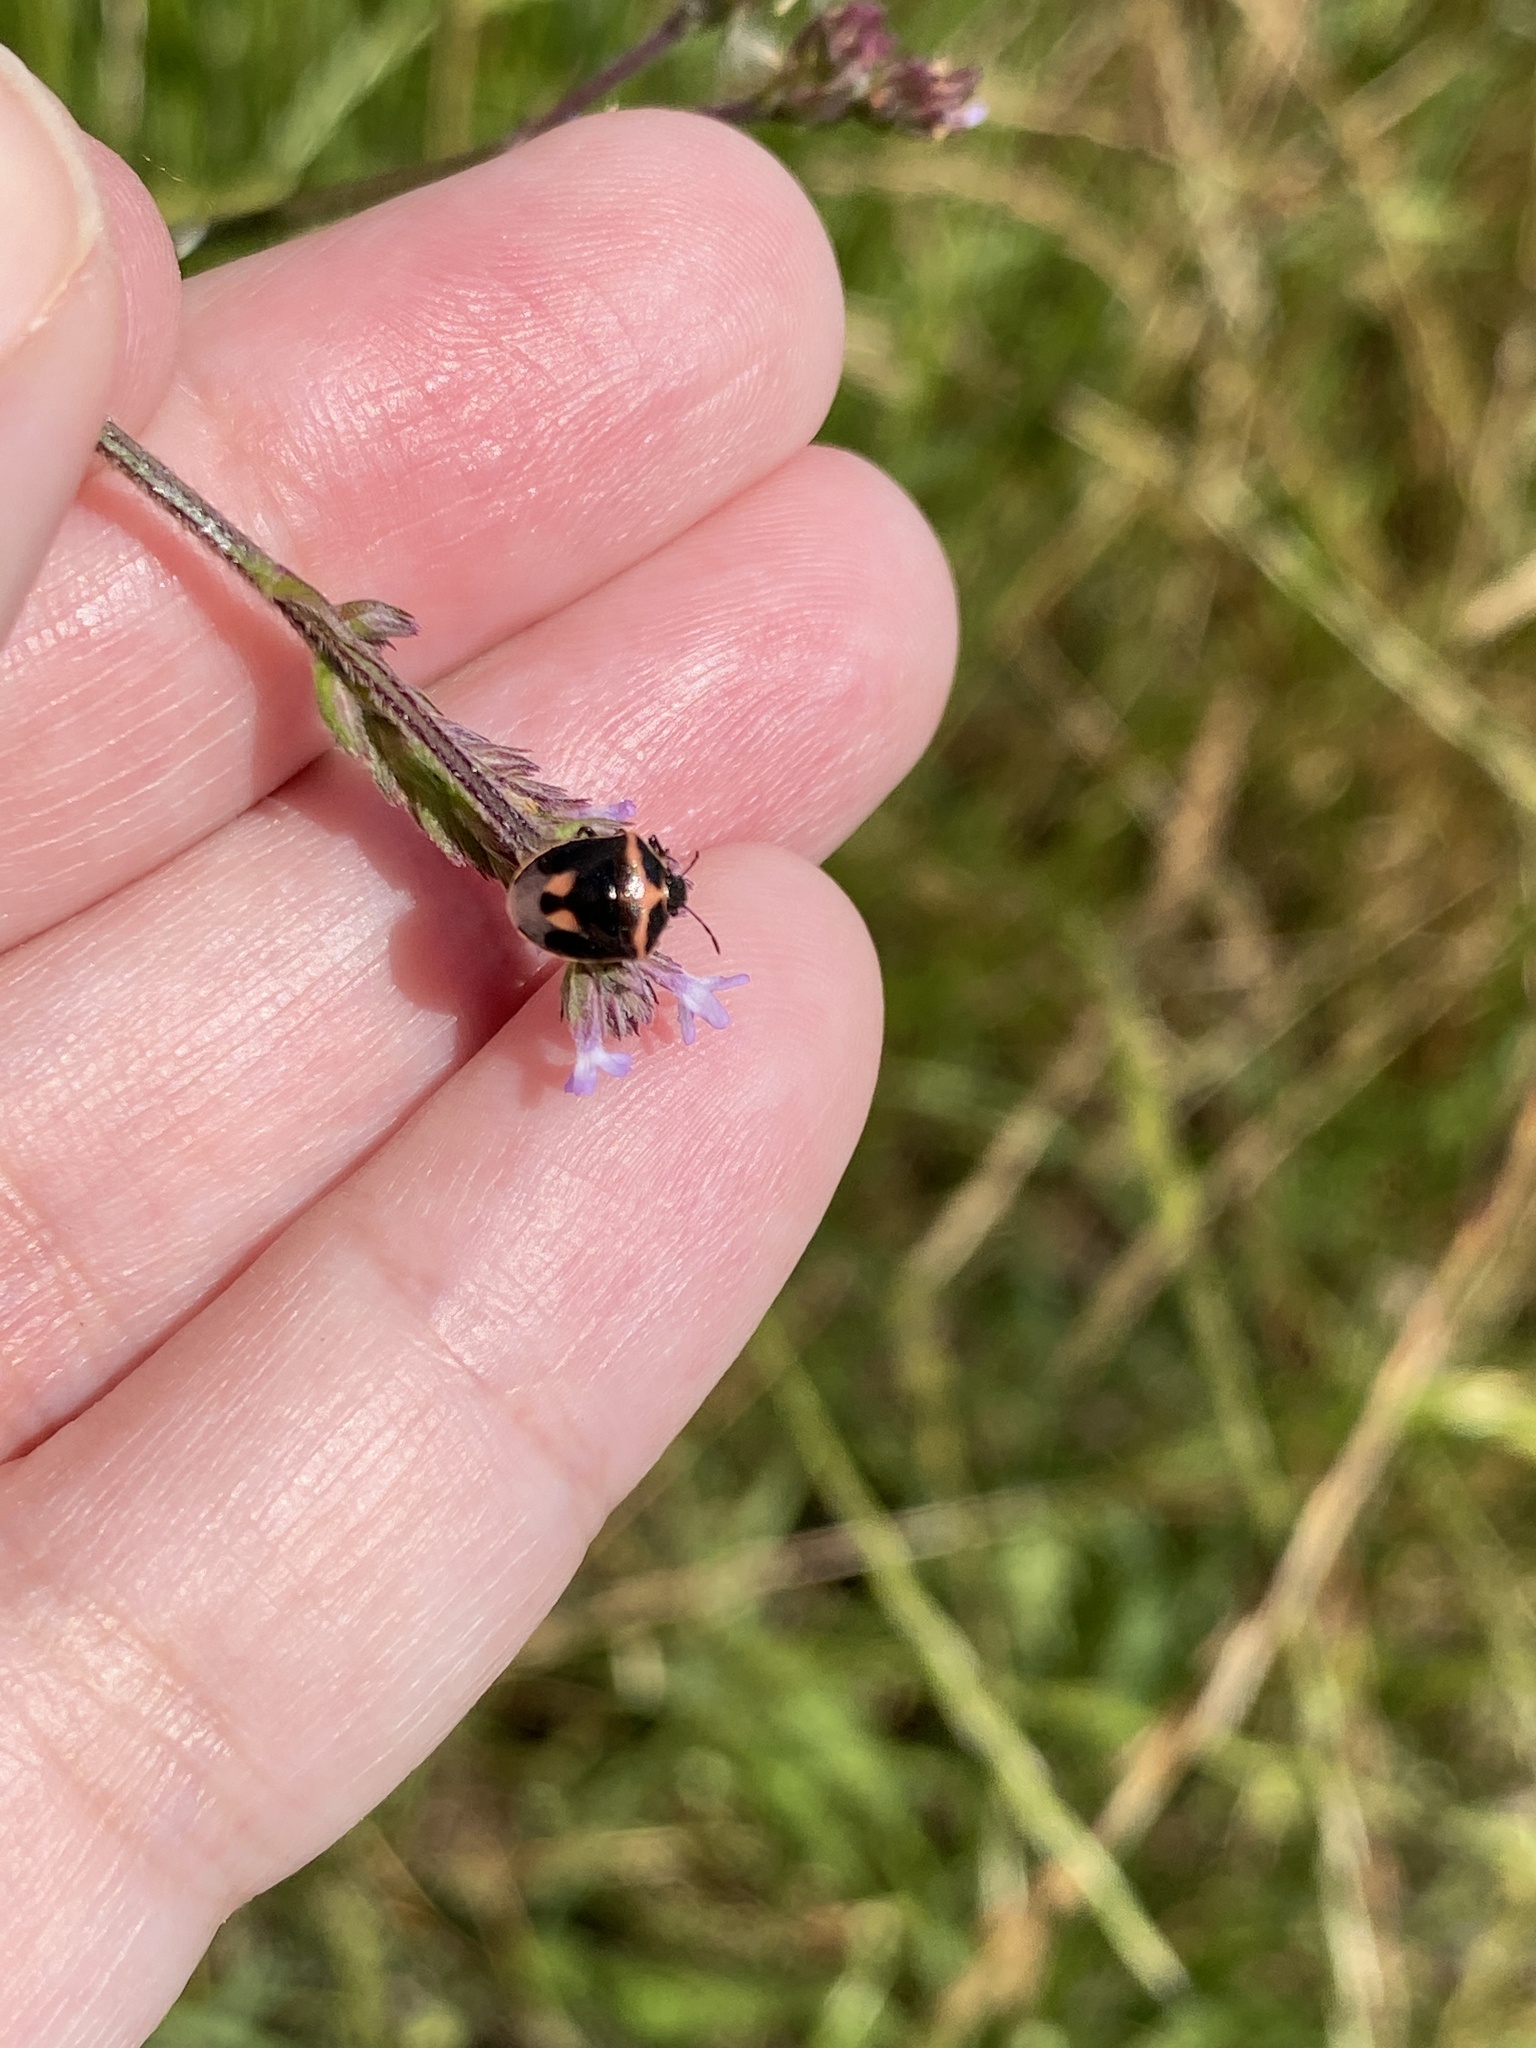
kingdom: Animalia
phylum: Arthropoda
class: Insecta
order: Hemiptera
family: Pentatomidae
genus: Cosmopepla
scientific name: Cosmopepla lintneriana
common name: Twice-stabbed stink bug
